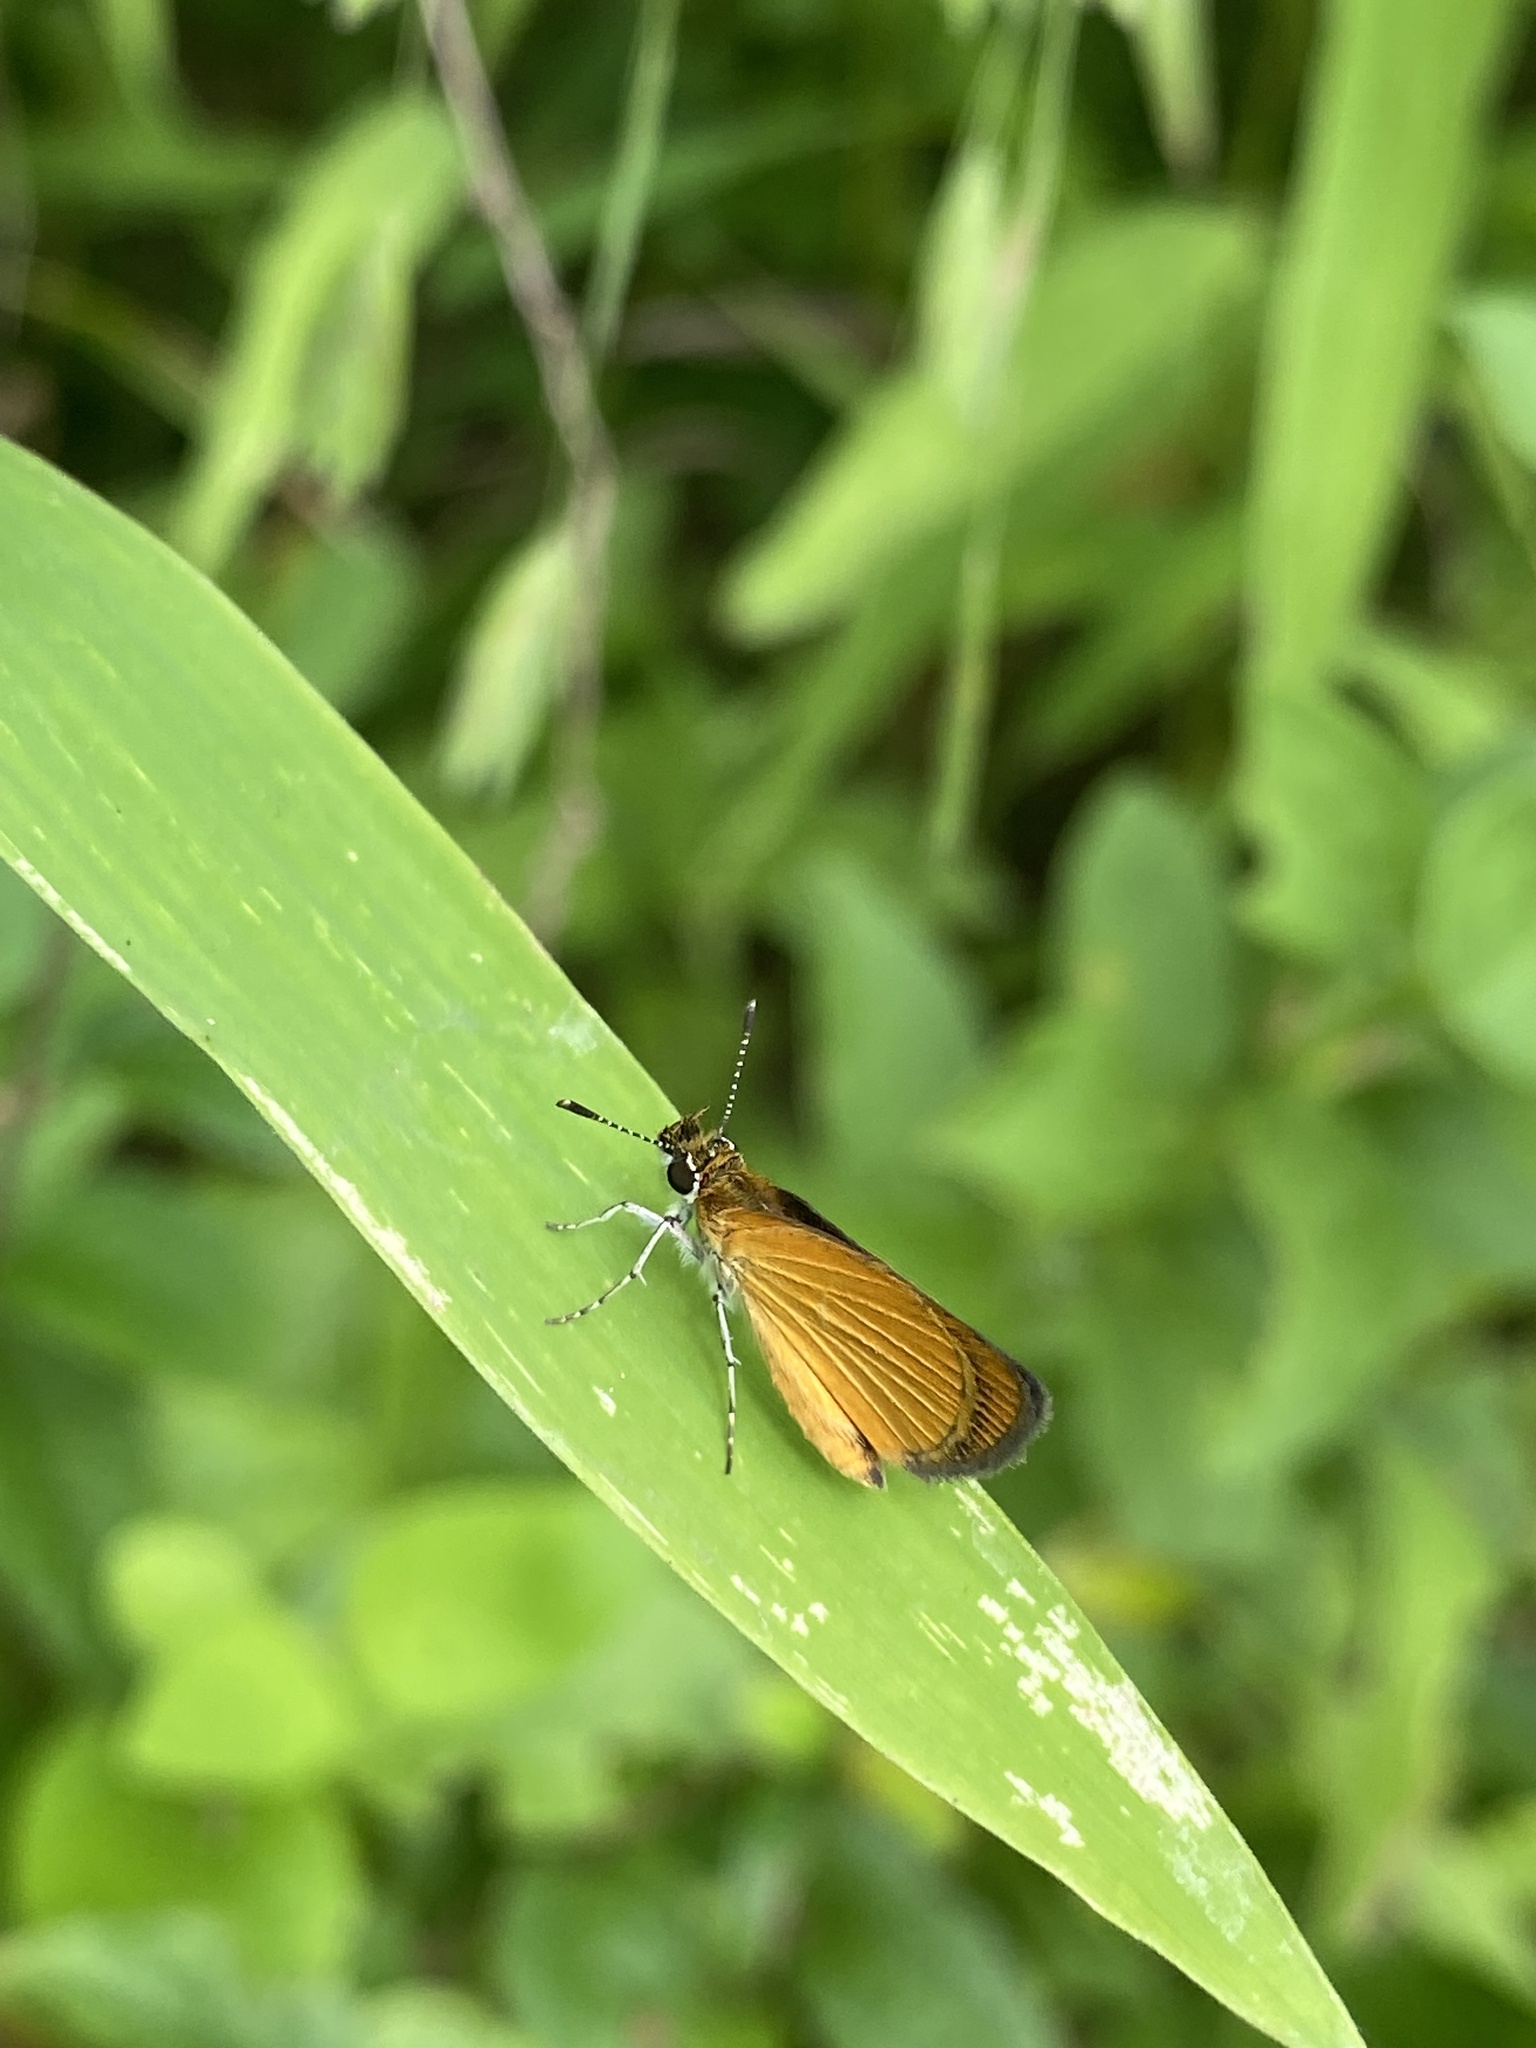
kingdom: Animalia
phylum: Arthropoda
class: Insecta
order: Lepidoptera
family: Hesperiidae
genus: Ancyloxypha
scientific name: Ancyloxypha numitor
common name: Least skipper
